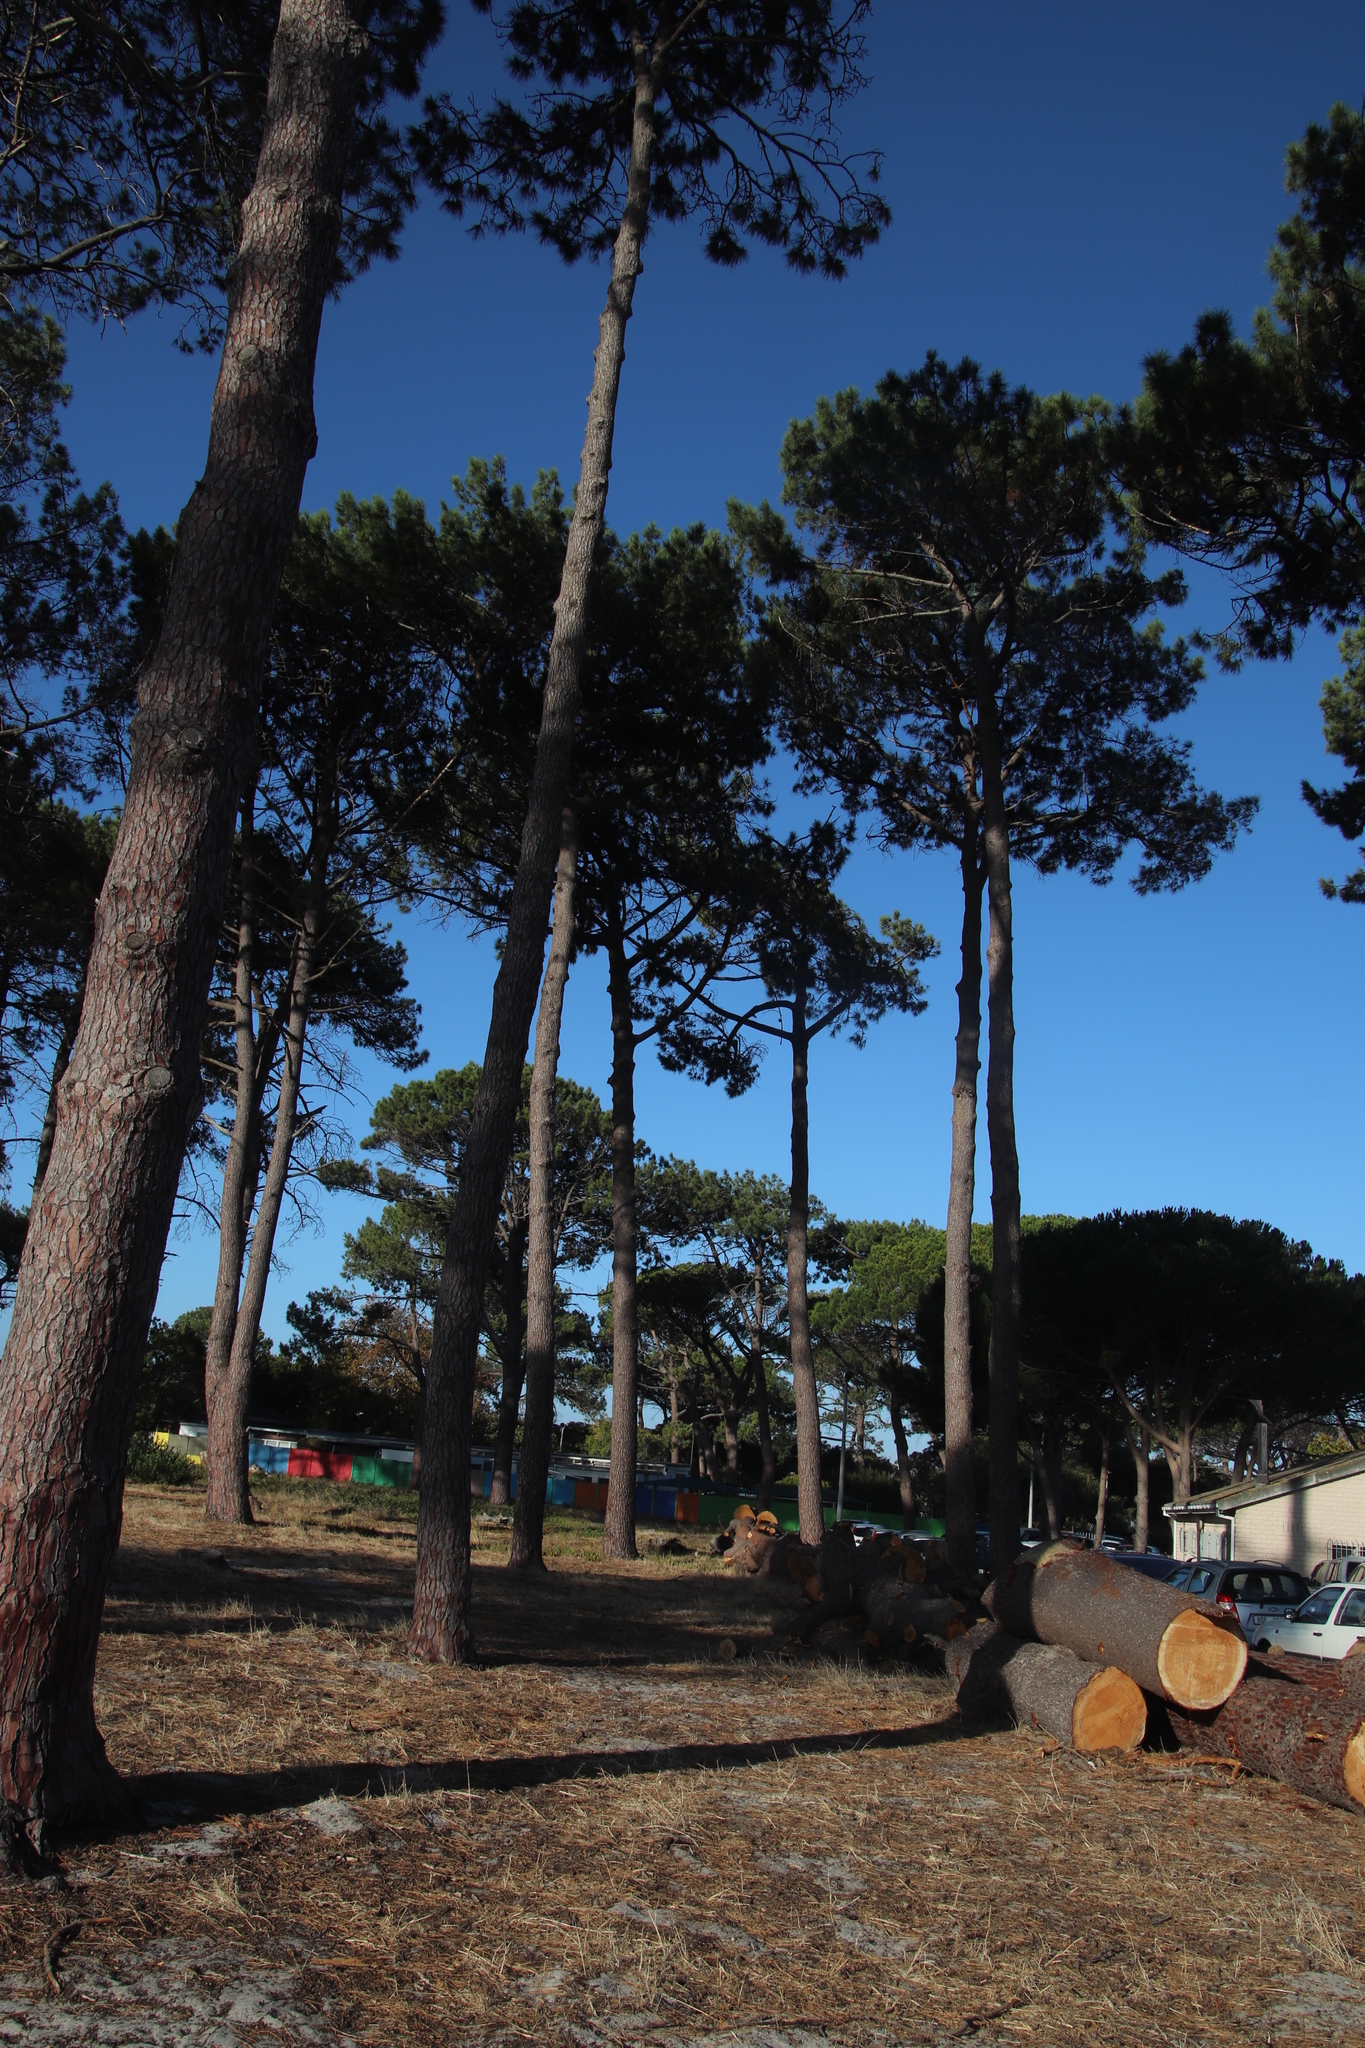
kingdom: Plantae
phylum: Tracheophyta
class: Pinopsida
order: Pinales
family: Pinaceae
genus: Pinus
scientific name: Pinus pinea
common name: Italian stone pine
